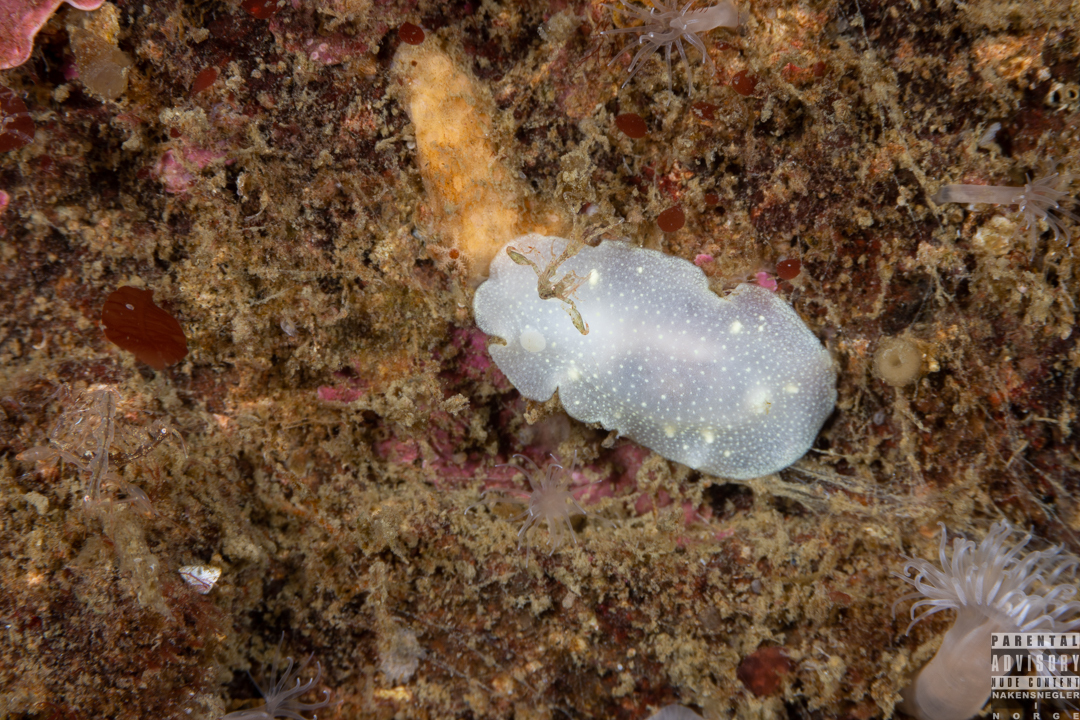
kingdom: Animalia
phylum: Mollusca
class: Gastropoda
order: Nudibranchia
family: Cadlinidae
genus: Cadlina
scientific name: Cadlina laevis
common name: White atlantic cadlina
